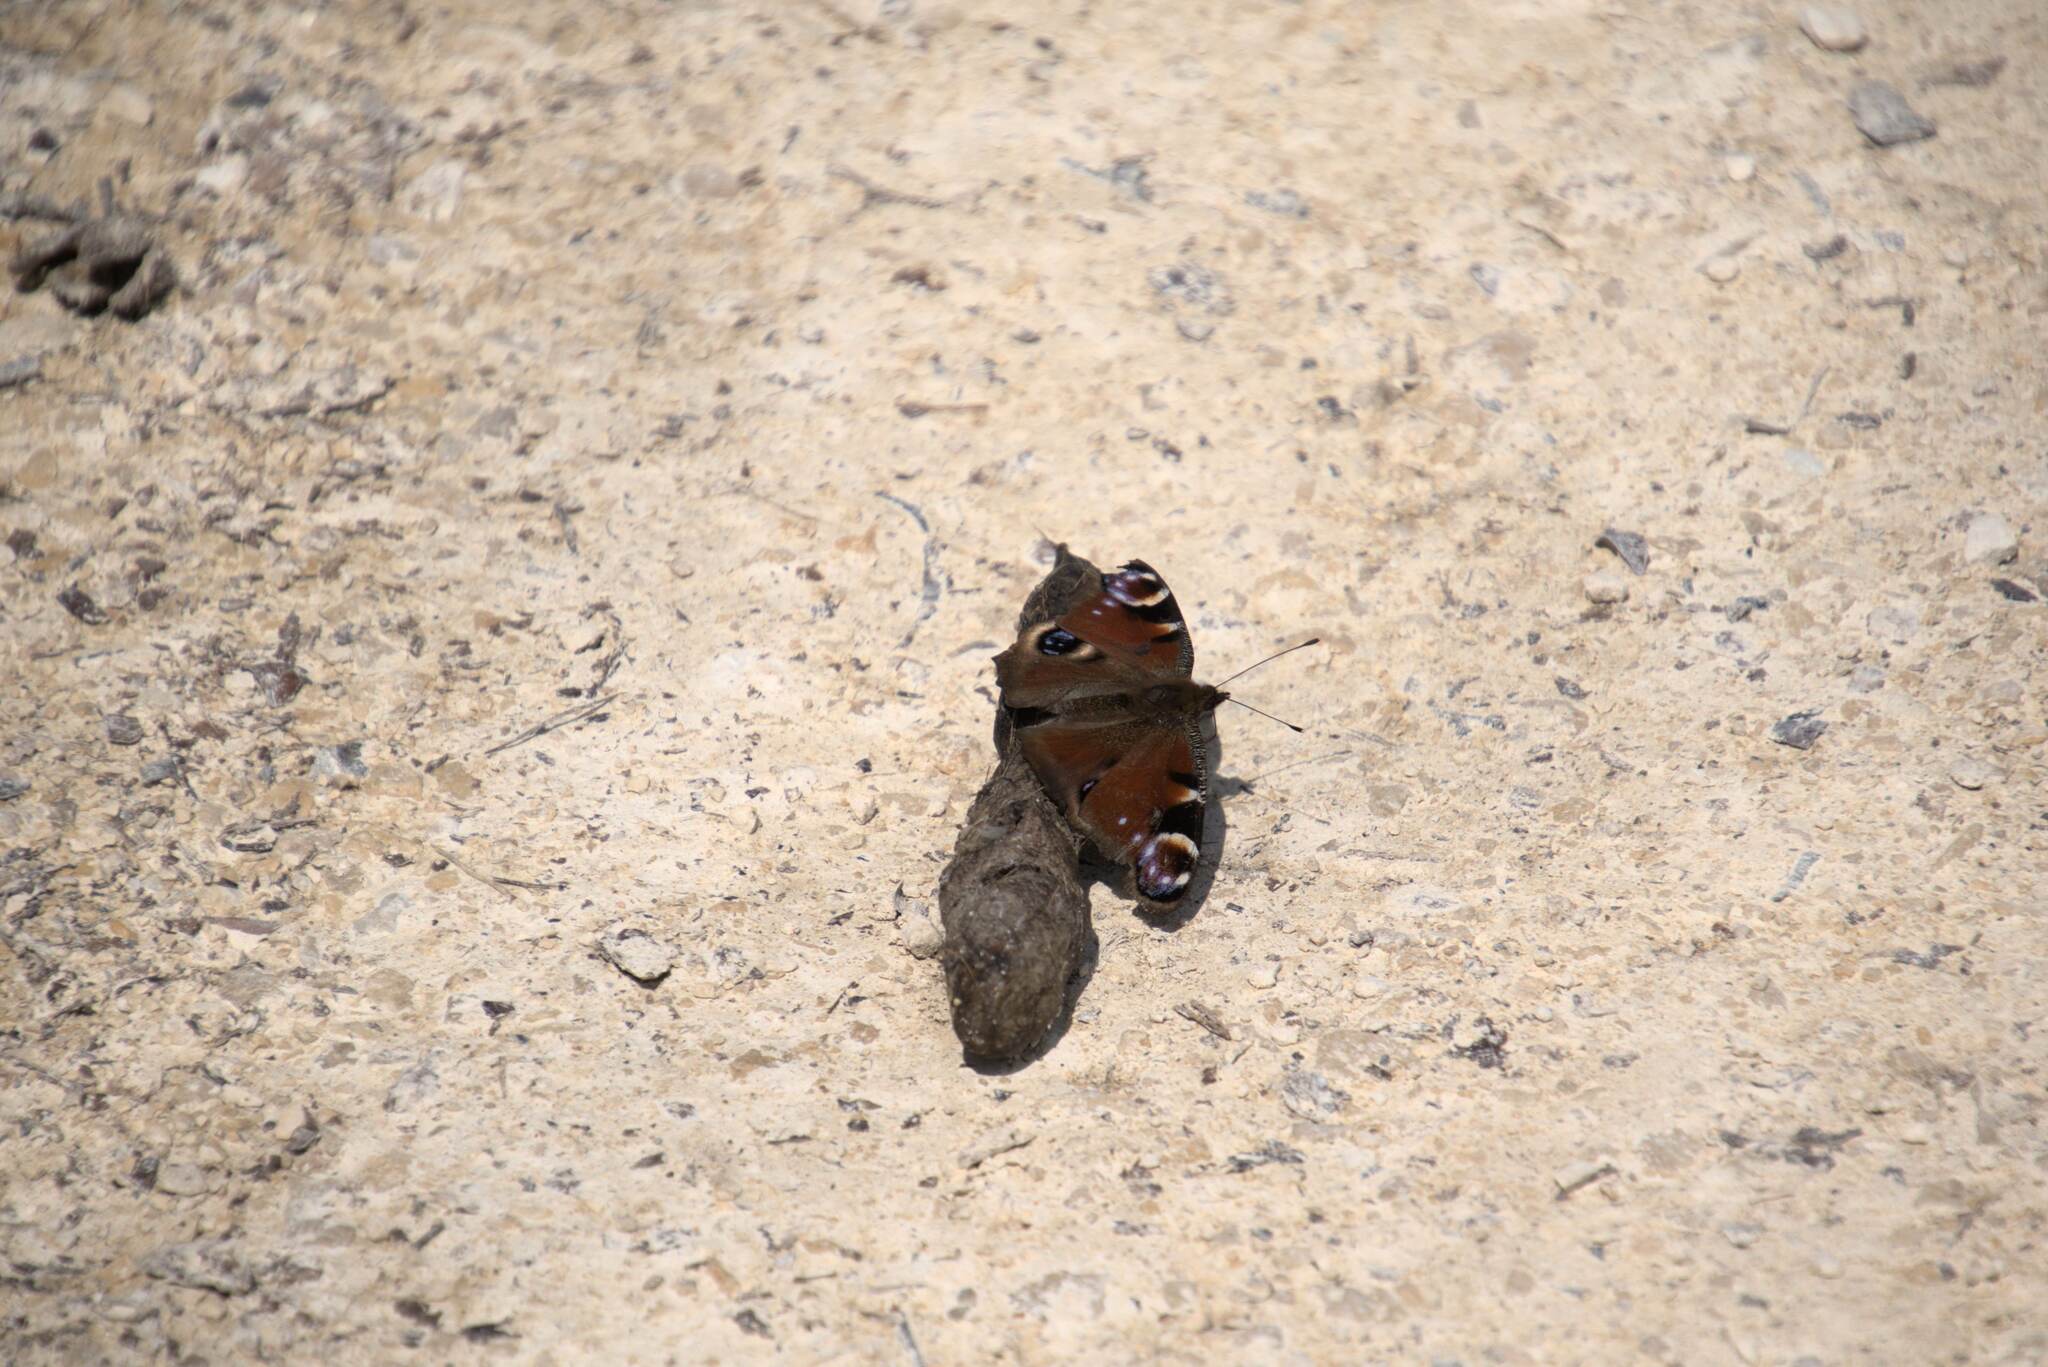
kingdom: Animalia
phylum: Arthropoda
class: Insecta
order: Lepidoptera
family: Nymphalidae
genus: Aglais
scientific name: Aglais io
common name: Peacock
